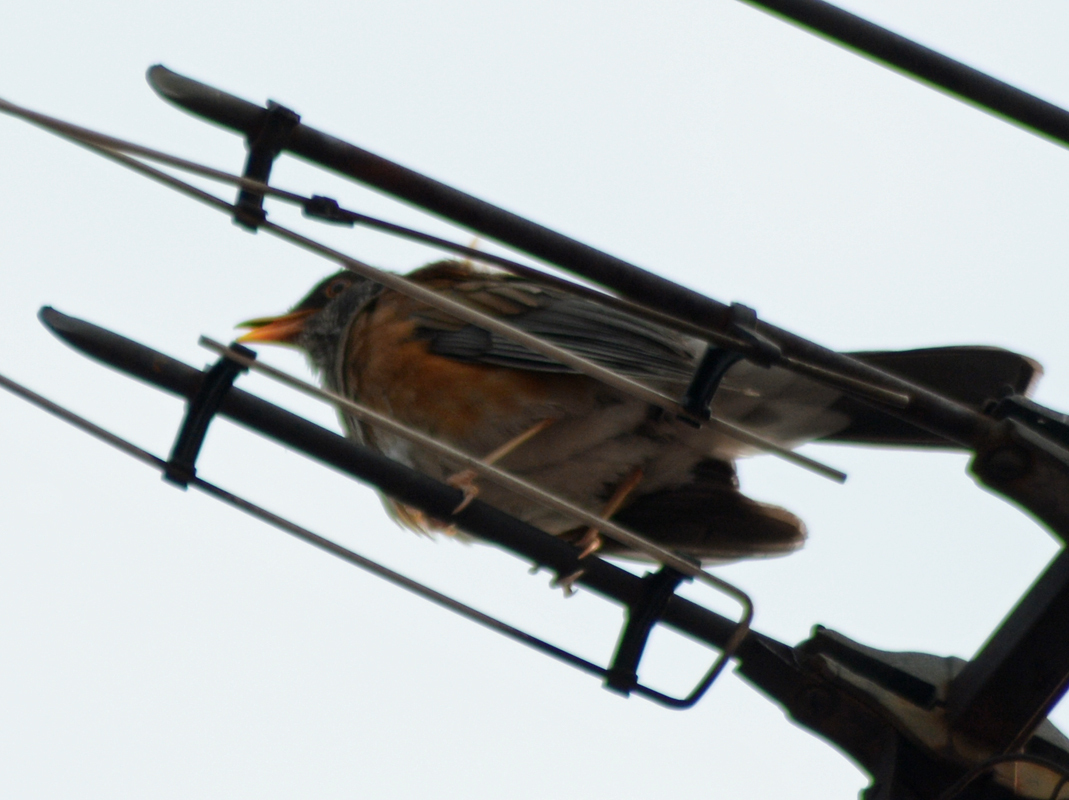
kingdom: Animalia
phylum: Chordata
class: Aves
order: Passeriformes
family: Turdidae
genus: Turdus
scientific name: Turdus rufopalliatus
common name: Rufous-backed robin
